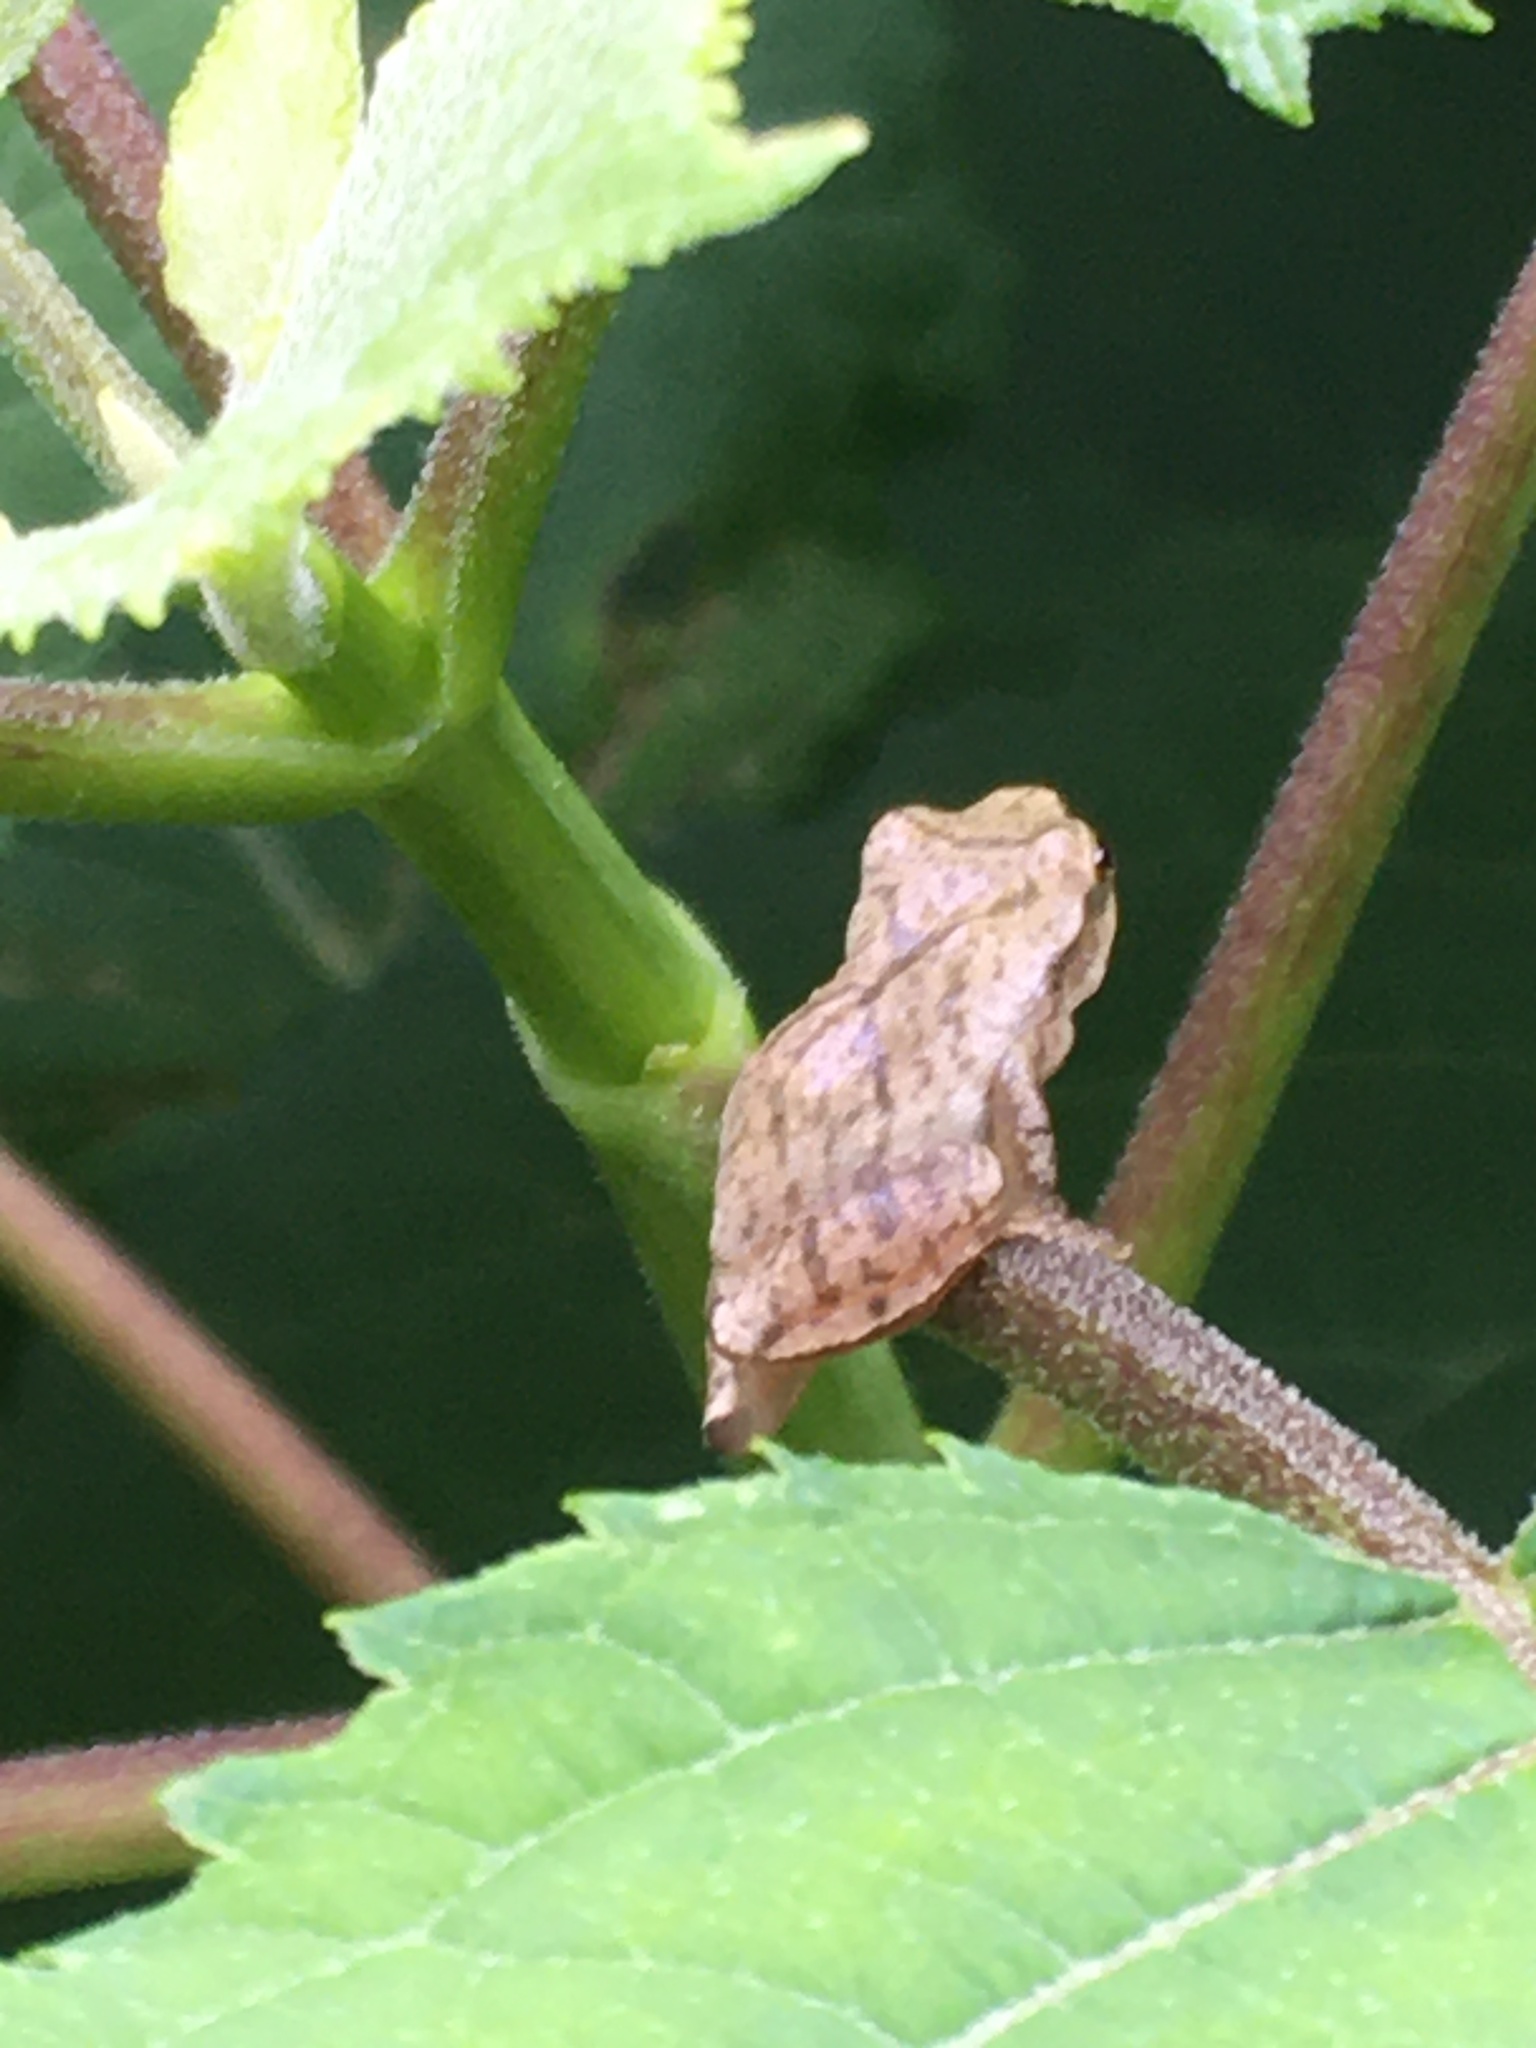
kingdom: Animalia
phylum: Chordata
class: Amphibia
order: Anura
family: Hylidae
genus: Pseudacris
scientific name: Pseudacris crucifer
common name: Spring peeper
